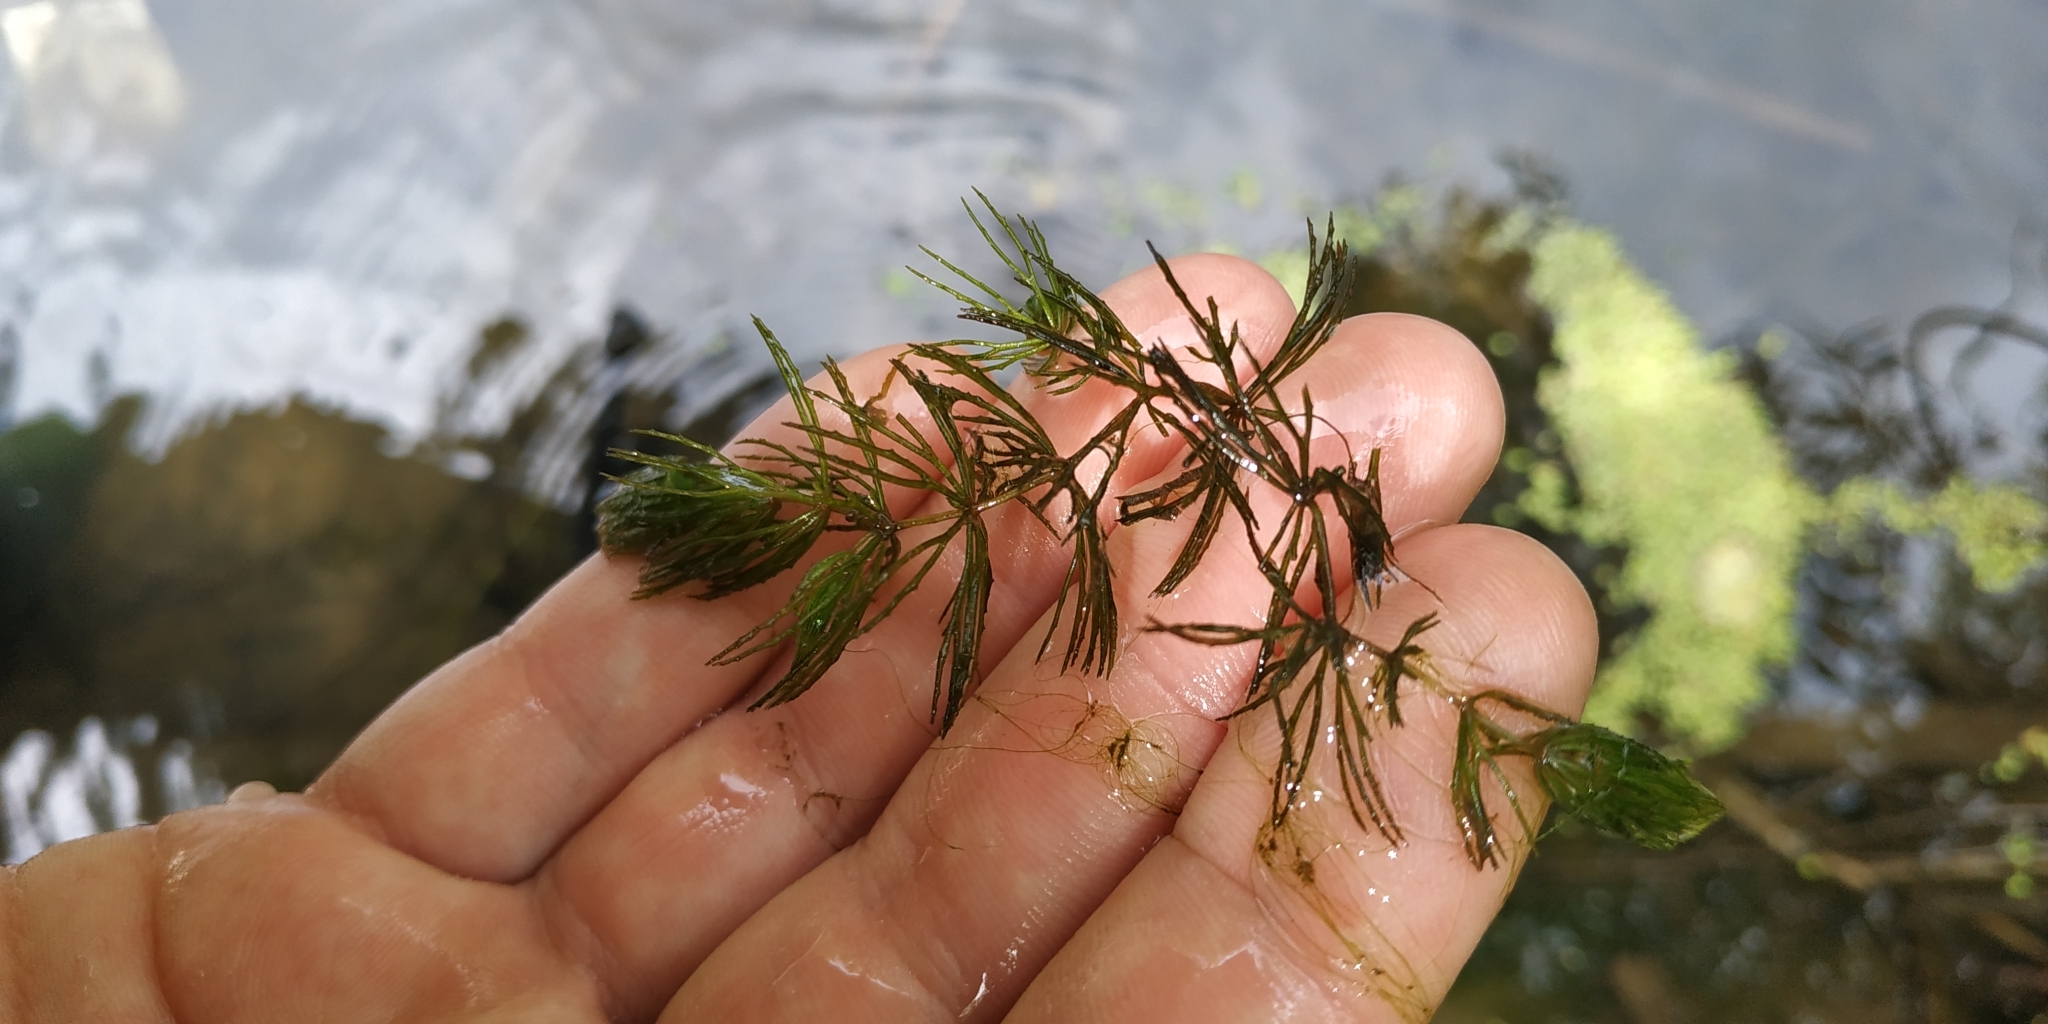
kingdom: Plantae
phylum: Tracheophyta
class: Magnoliopsida
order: Ceratophyllales
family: Ceratophyllaceae
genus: Ceratophyllum
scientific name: Ceratophyllum demersum
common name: Rigid hornwort
